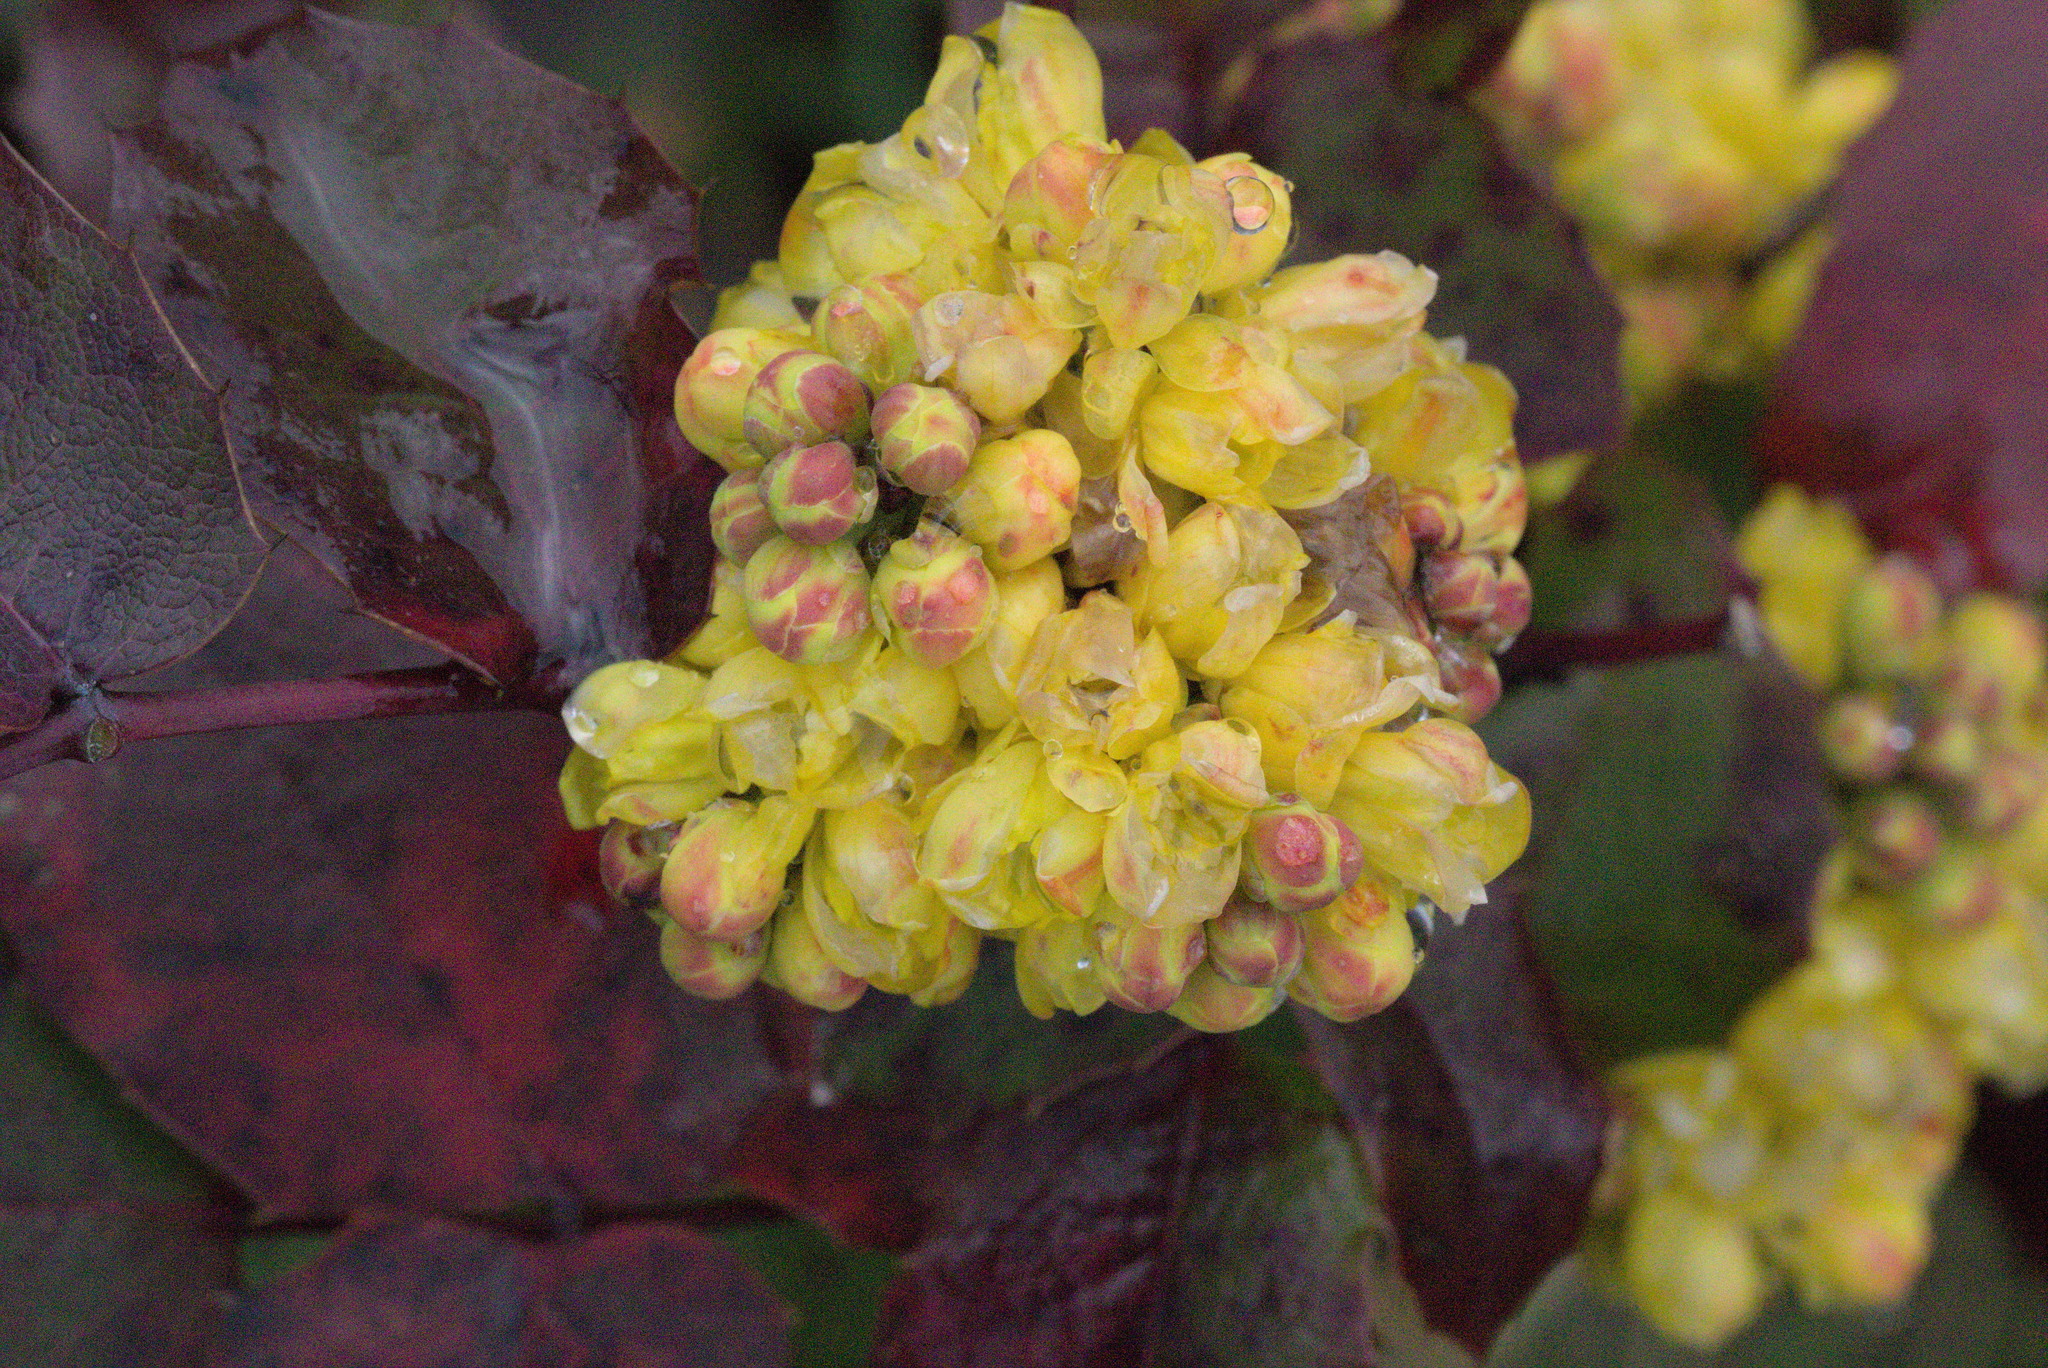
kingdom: Plantae
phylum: Tracheophyta
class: Magnoliopsida
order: Ranunculales
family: Berberidaceae
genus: Mahonia
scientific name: Mahonia aquifolium
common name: Oregon-grape
